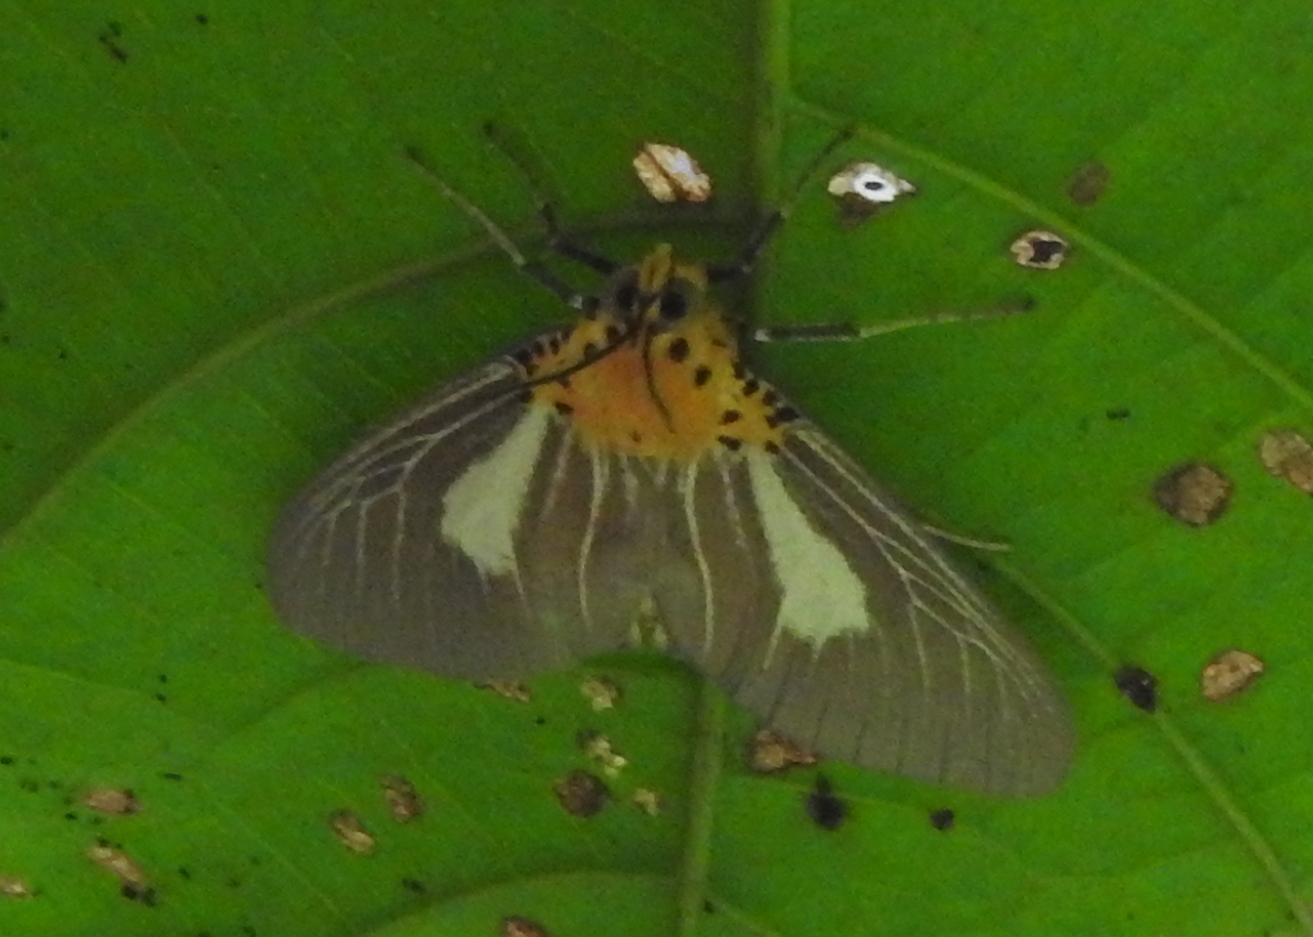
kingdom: Animalia
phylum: Arthropoda
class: Insecta
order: Lepidoptera
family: Erebidae
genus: Asota
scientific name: Asota heliconia
